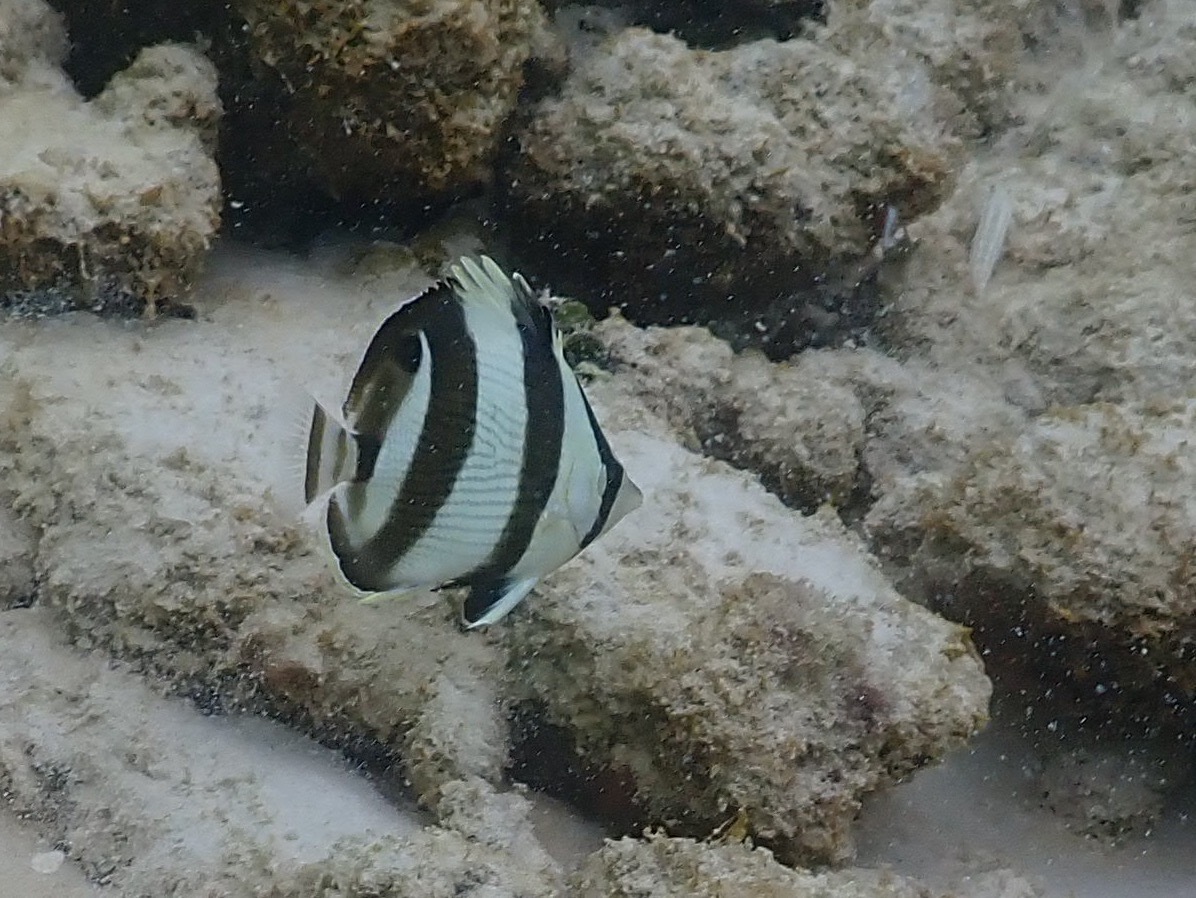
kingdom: Animalia
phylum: Chordata
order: Perciformes
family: Chaetodontidae
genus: Chaetodon
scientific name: Chaetodon striatus
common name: Banded butterflyfish
